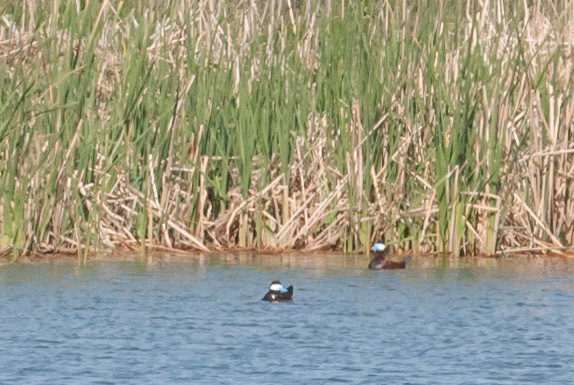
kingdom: Animalia
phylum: Chordata
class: Aves
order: Anseriformes
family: Anatidae
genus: Oxyura
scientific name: Oxyura jamaicensis
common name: Ruddy duck
